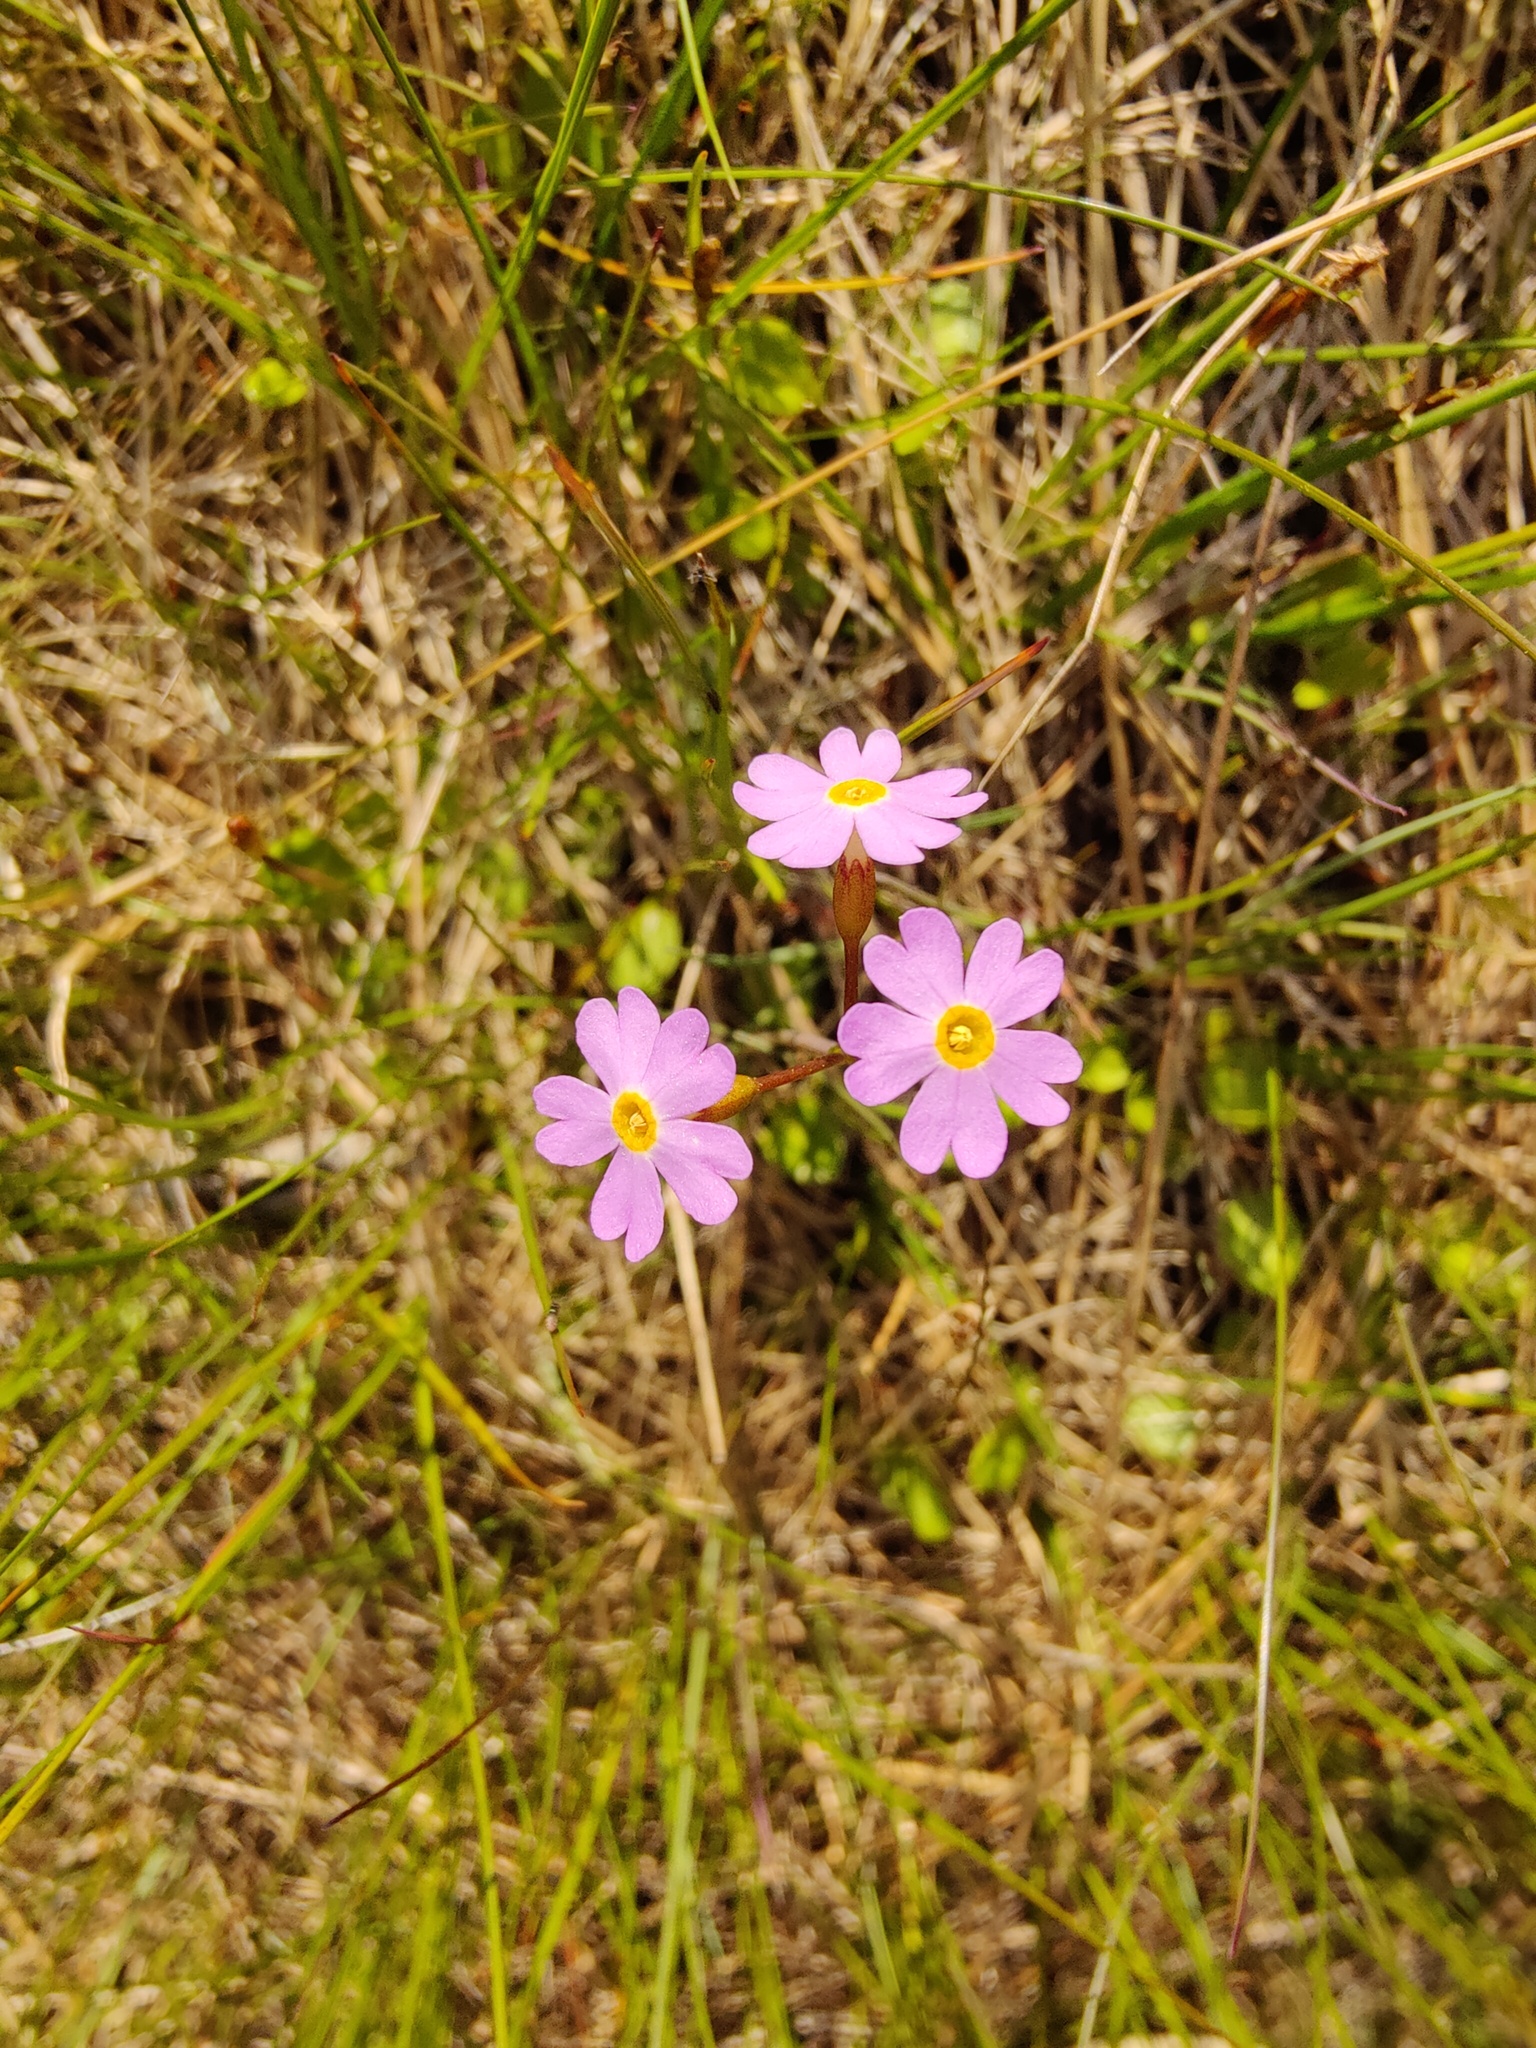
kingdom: Plantae
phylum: Tracheophyta
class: Magnoliopsida
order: Ericales
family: Primulaceae
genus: Primula
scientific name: Primula nutans
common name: Siberian primrose
